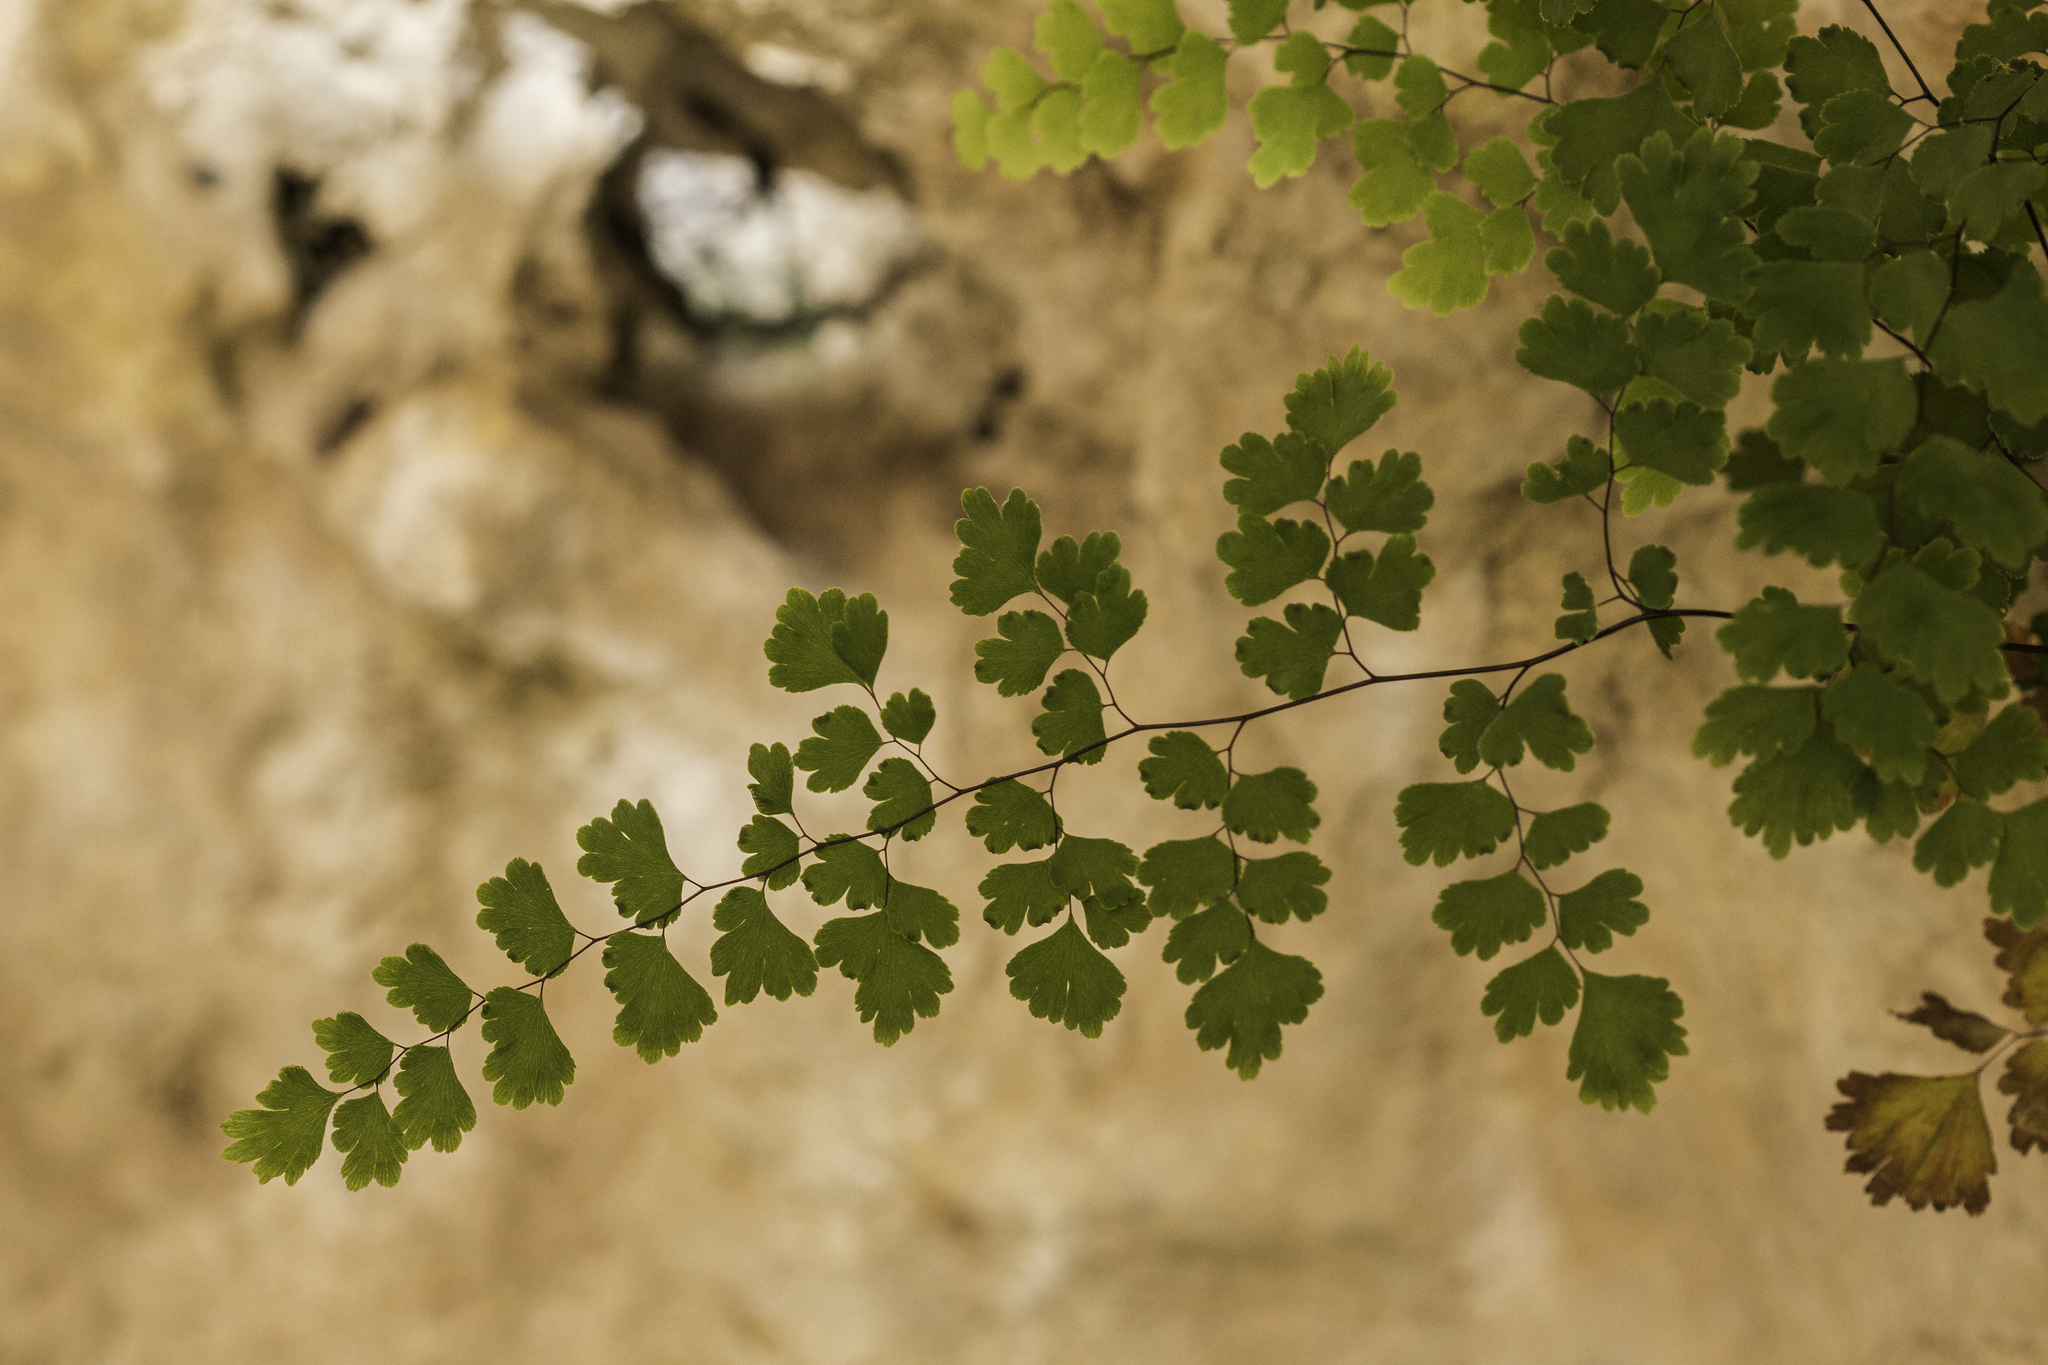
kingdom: Plantae
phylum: Tracheophyta
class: Polypodiopsida
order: Polypodiales
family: Pteridaceae
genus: Adiantum
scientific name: Adiantum capillus-veneris
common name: Maidenhair fern
